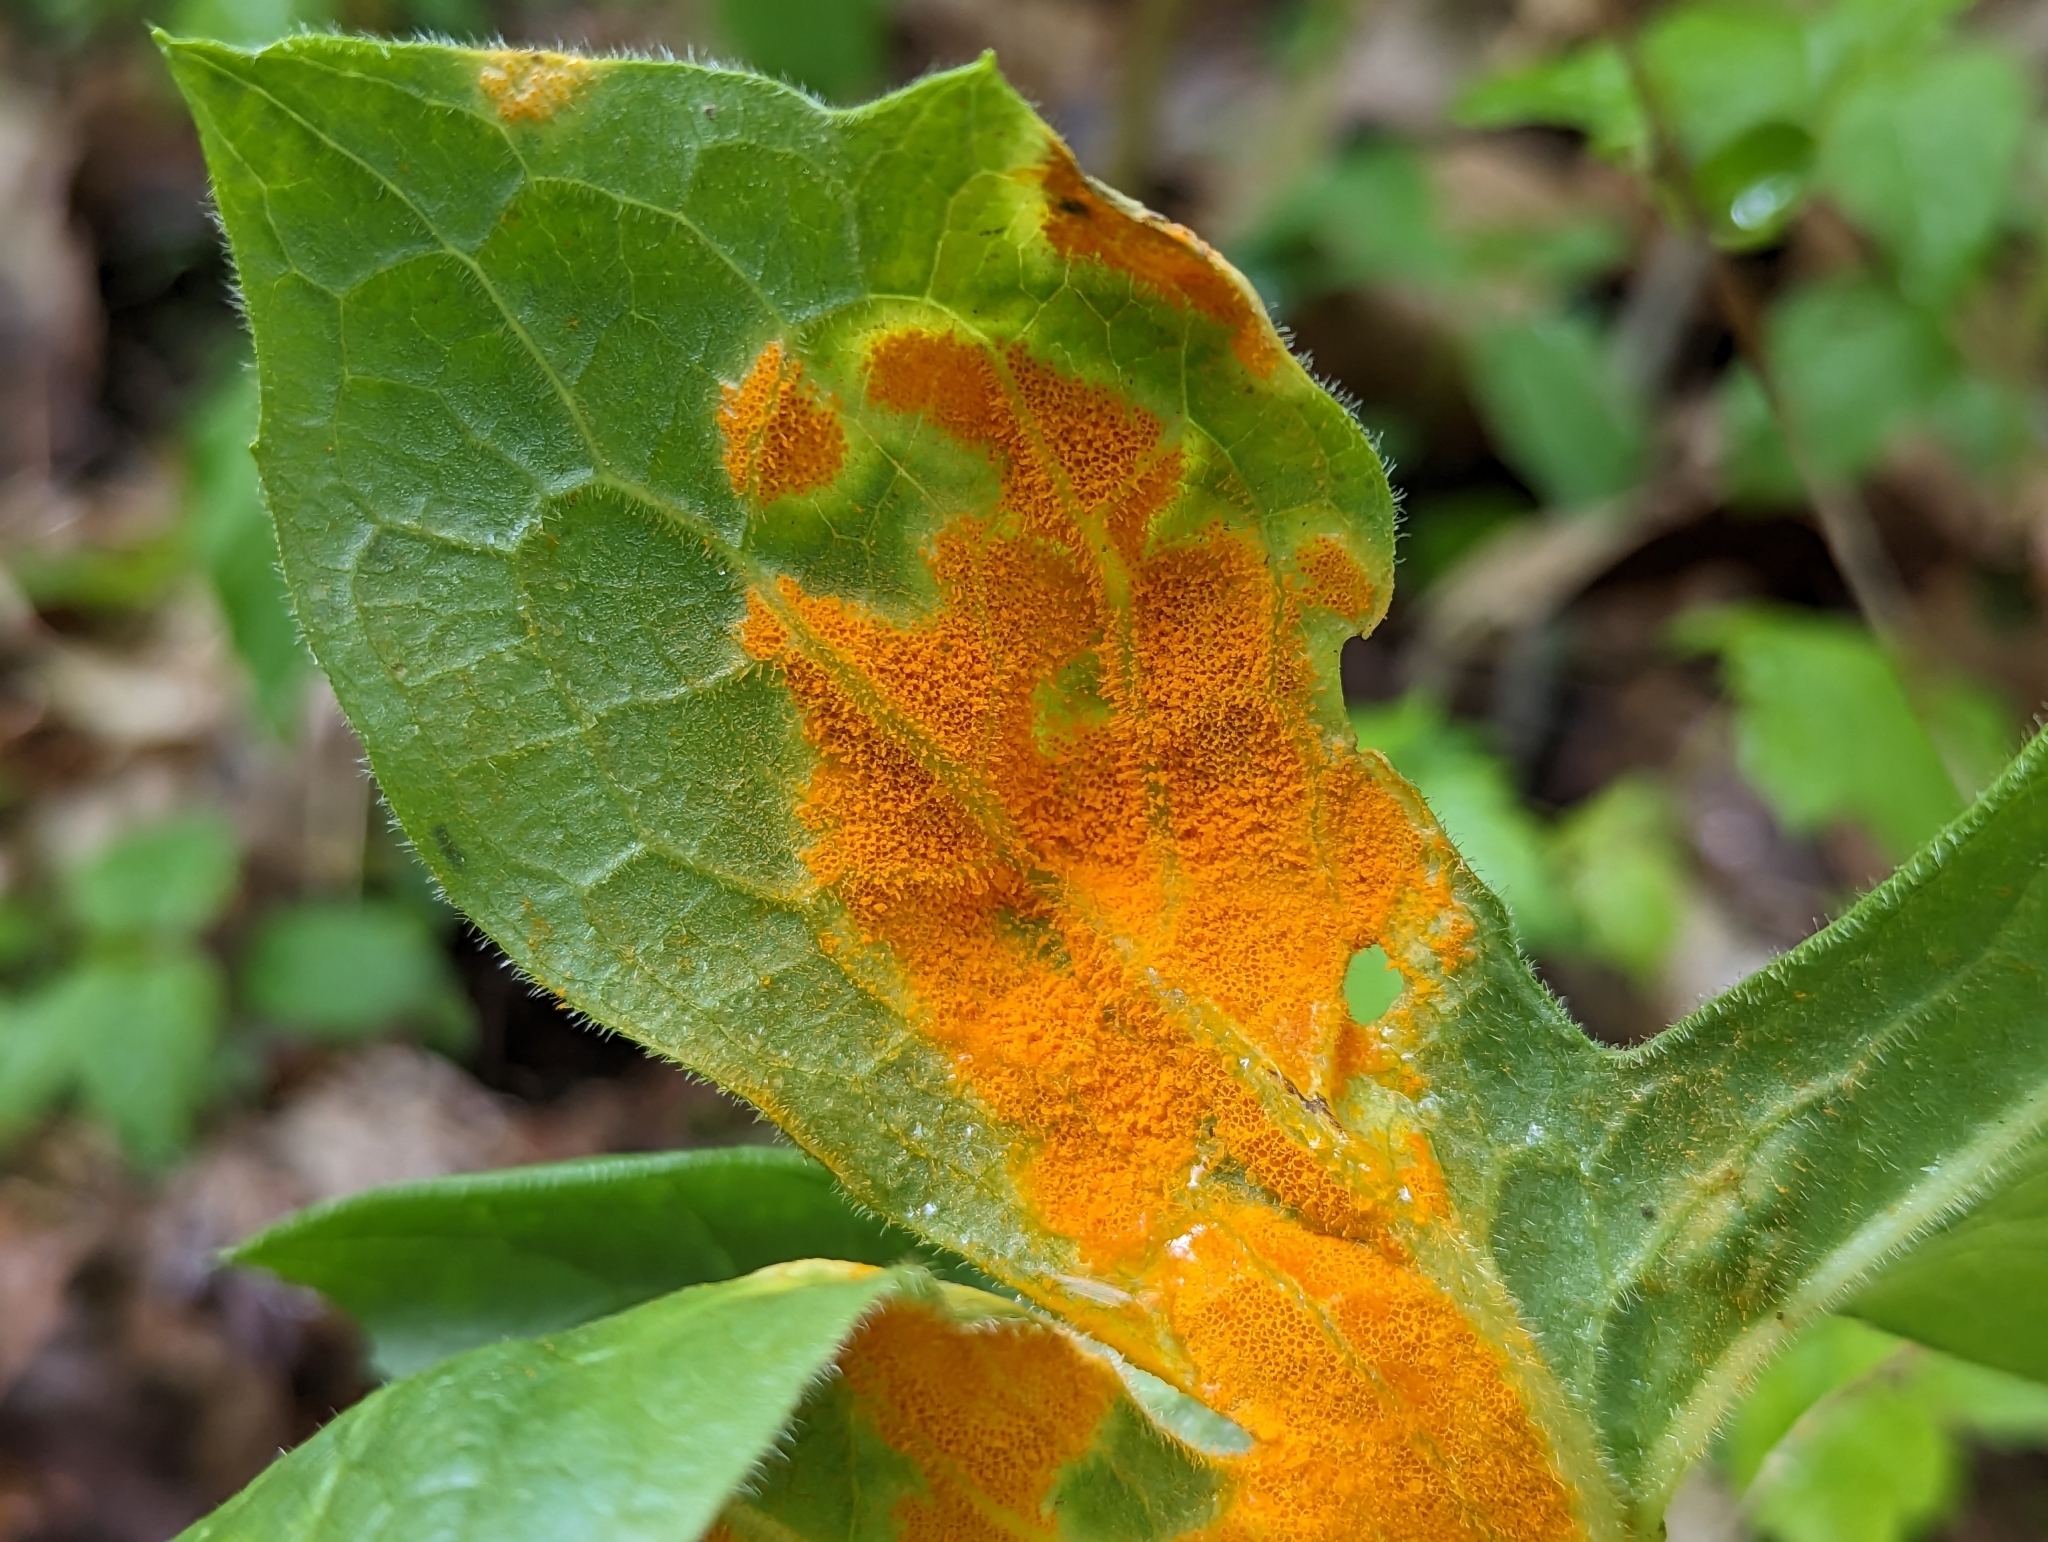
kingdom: Fungi
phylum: Basidiomycota
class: Pucciniomycetes
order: Pucciniales
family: Pucciniaceae
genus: Puccinia
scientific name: Puccinia podophylli
